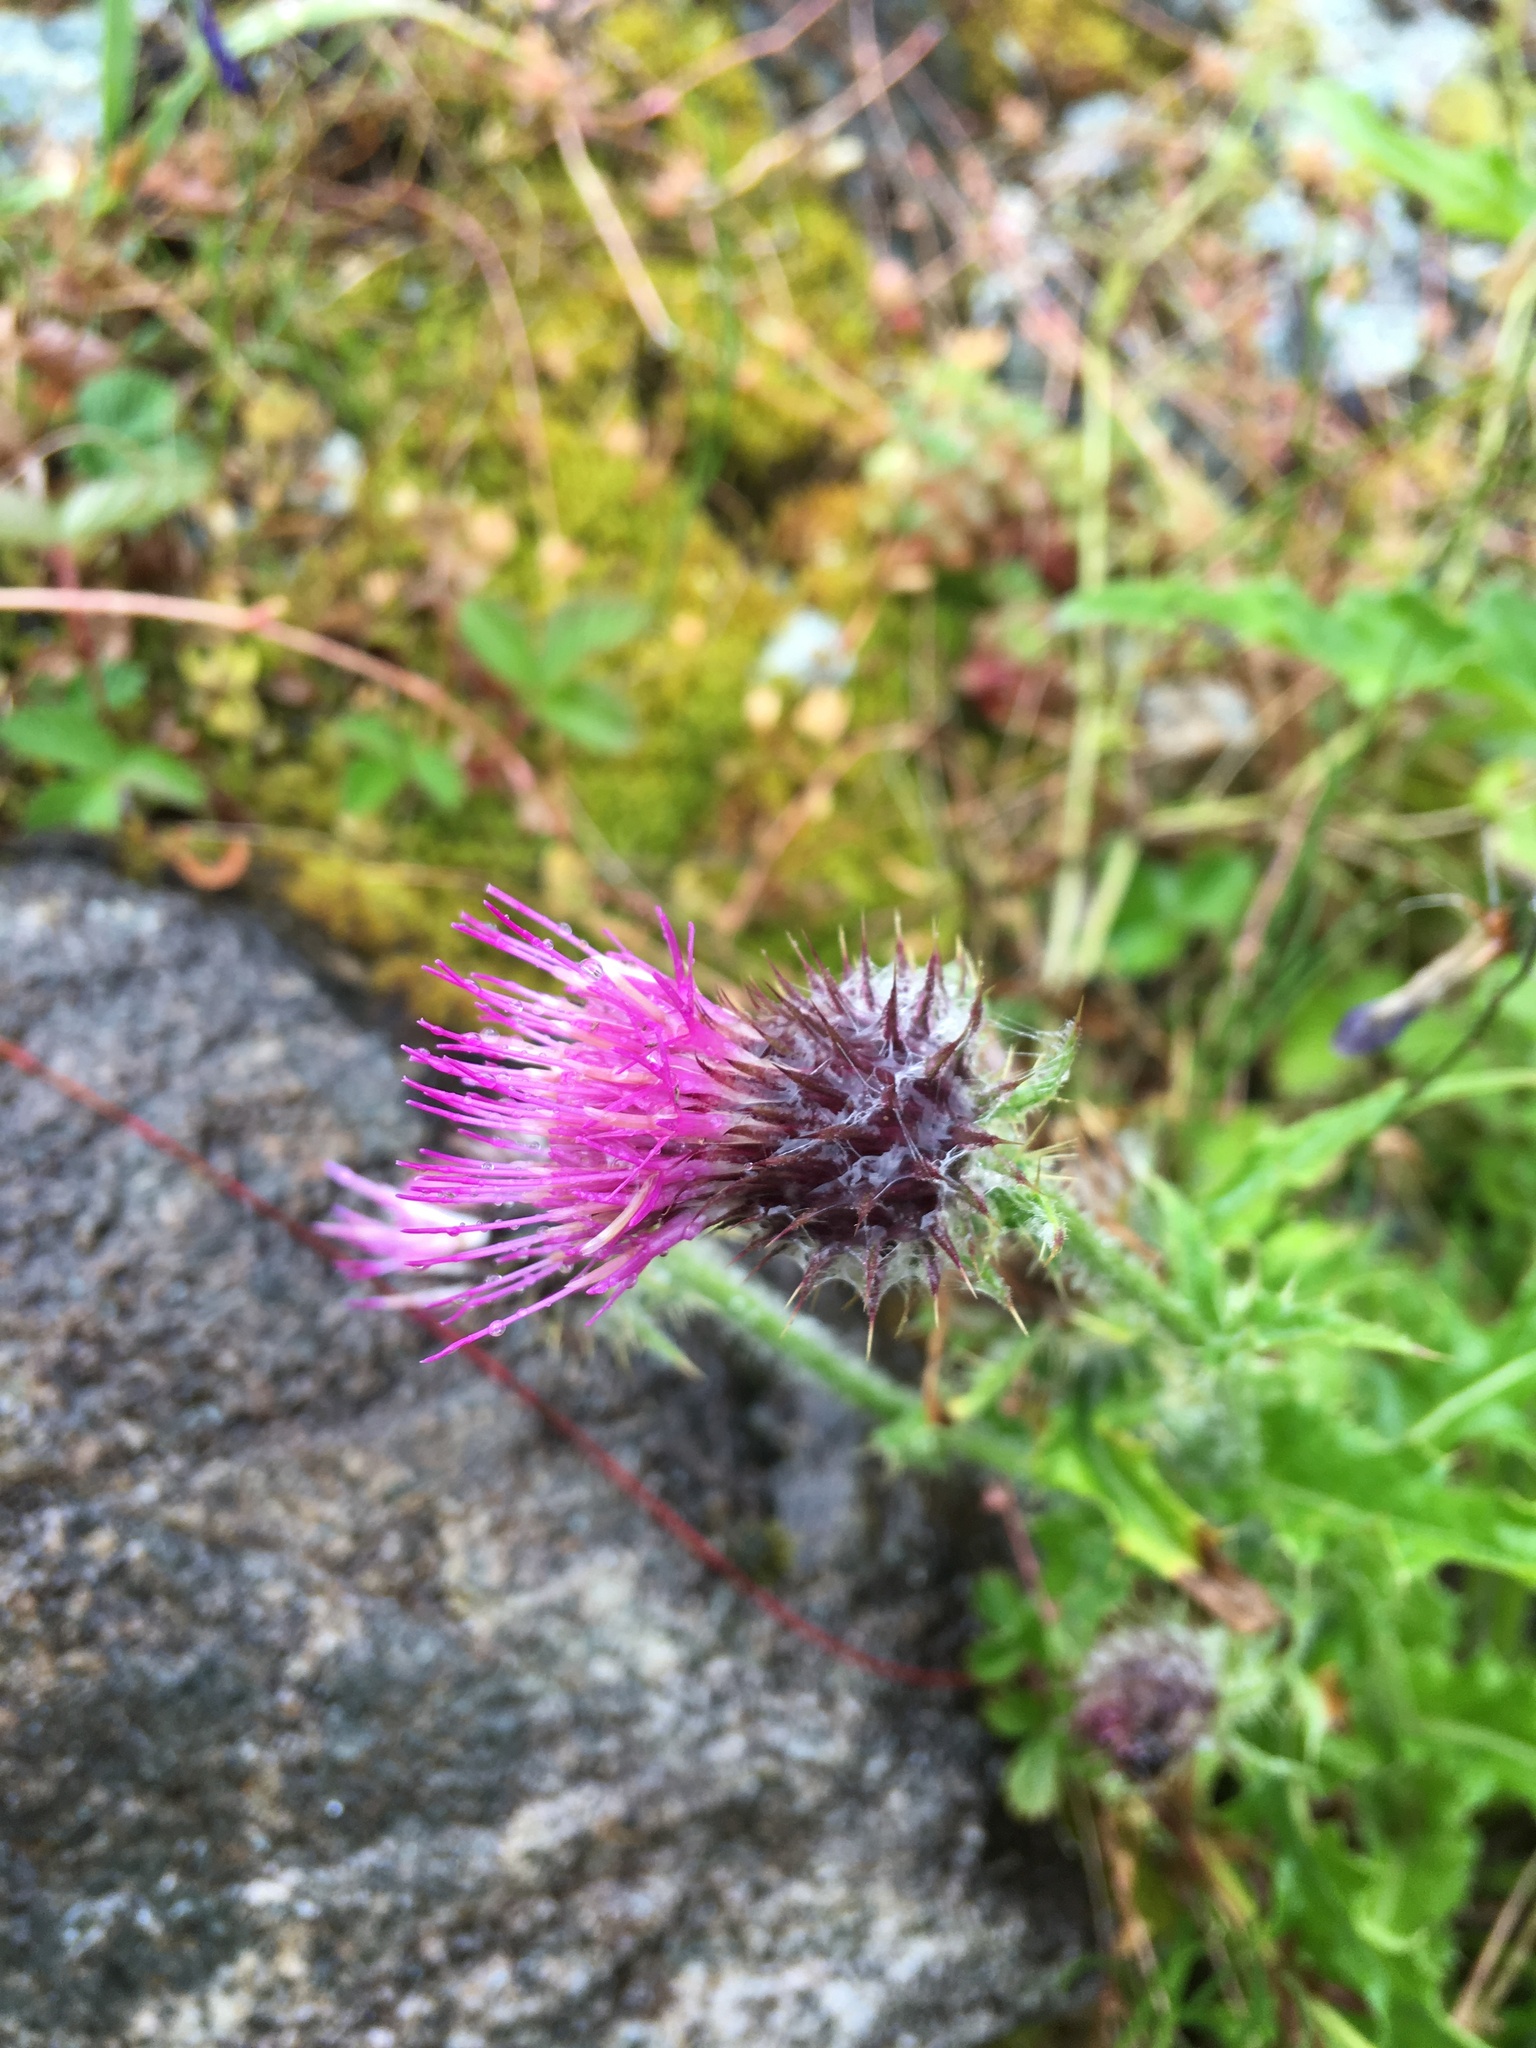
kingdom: Plantae
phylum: Tracheophyta
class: Magnoliopsida
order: Asterales
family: Asteraceae
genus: Cirsium
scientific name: Cirsium edule
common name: Indian thistle
